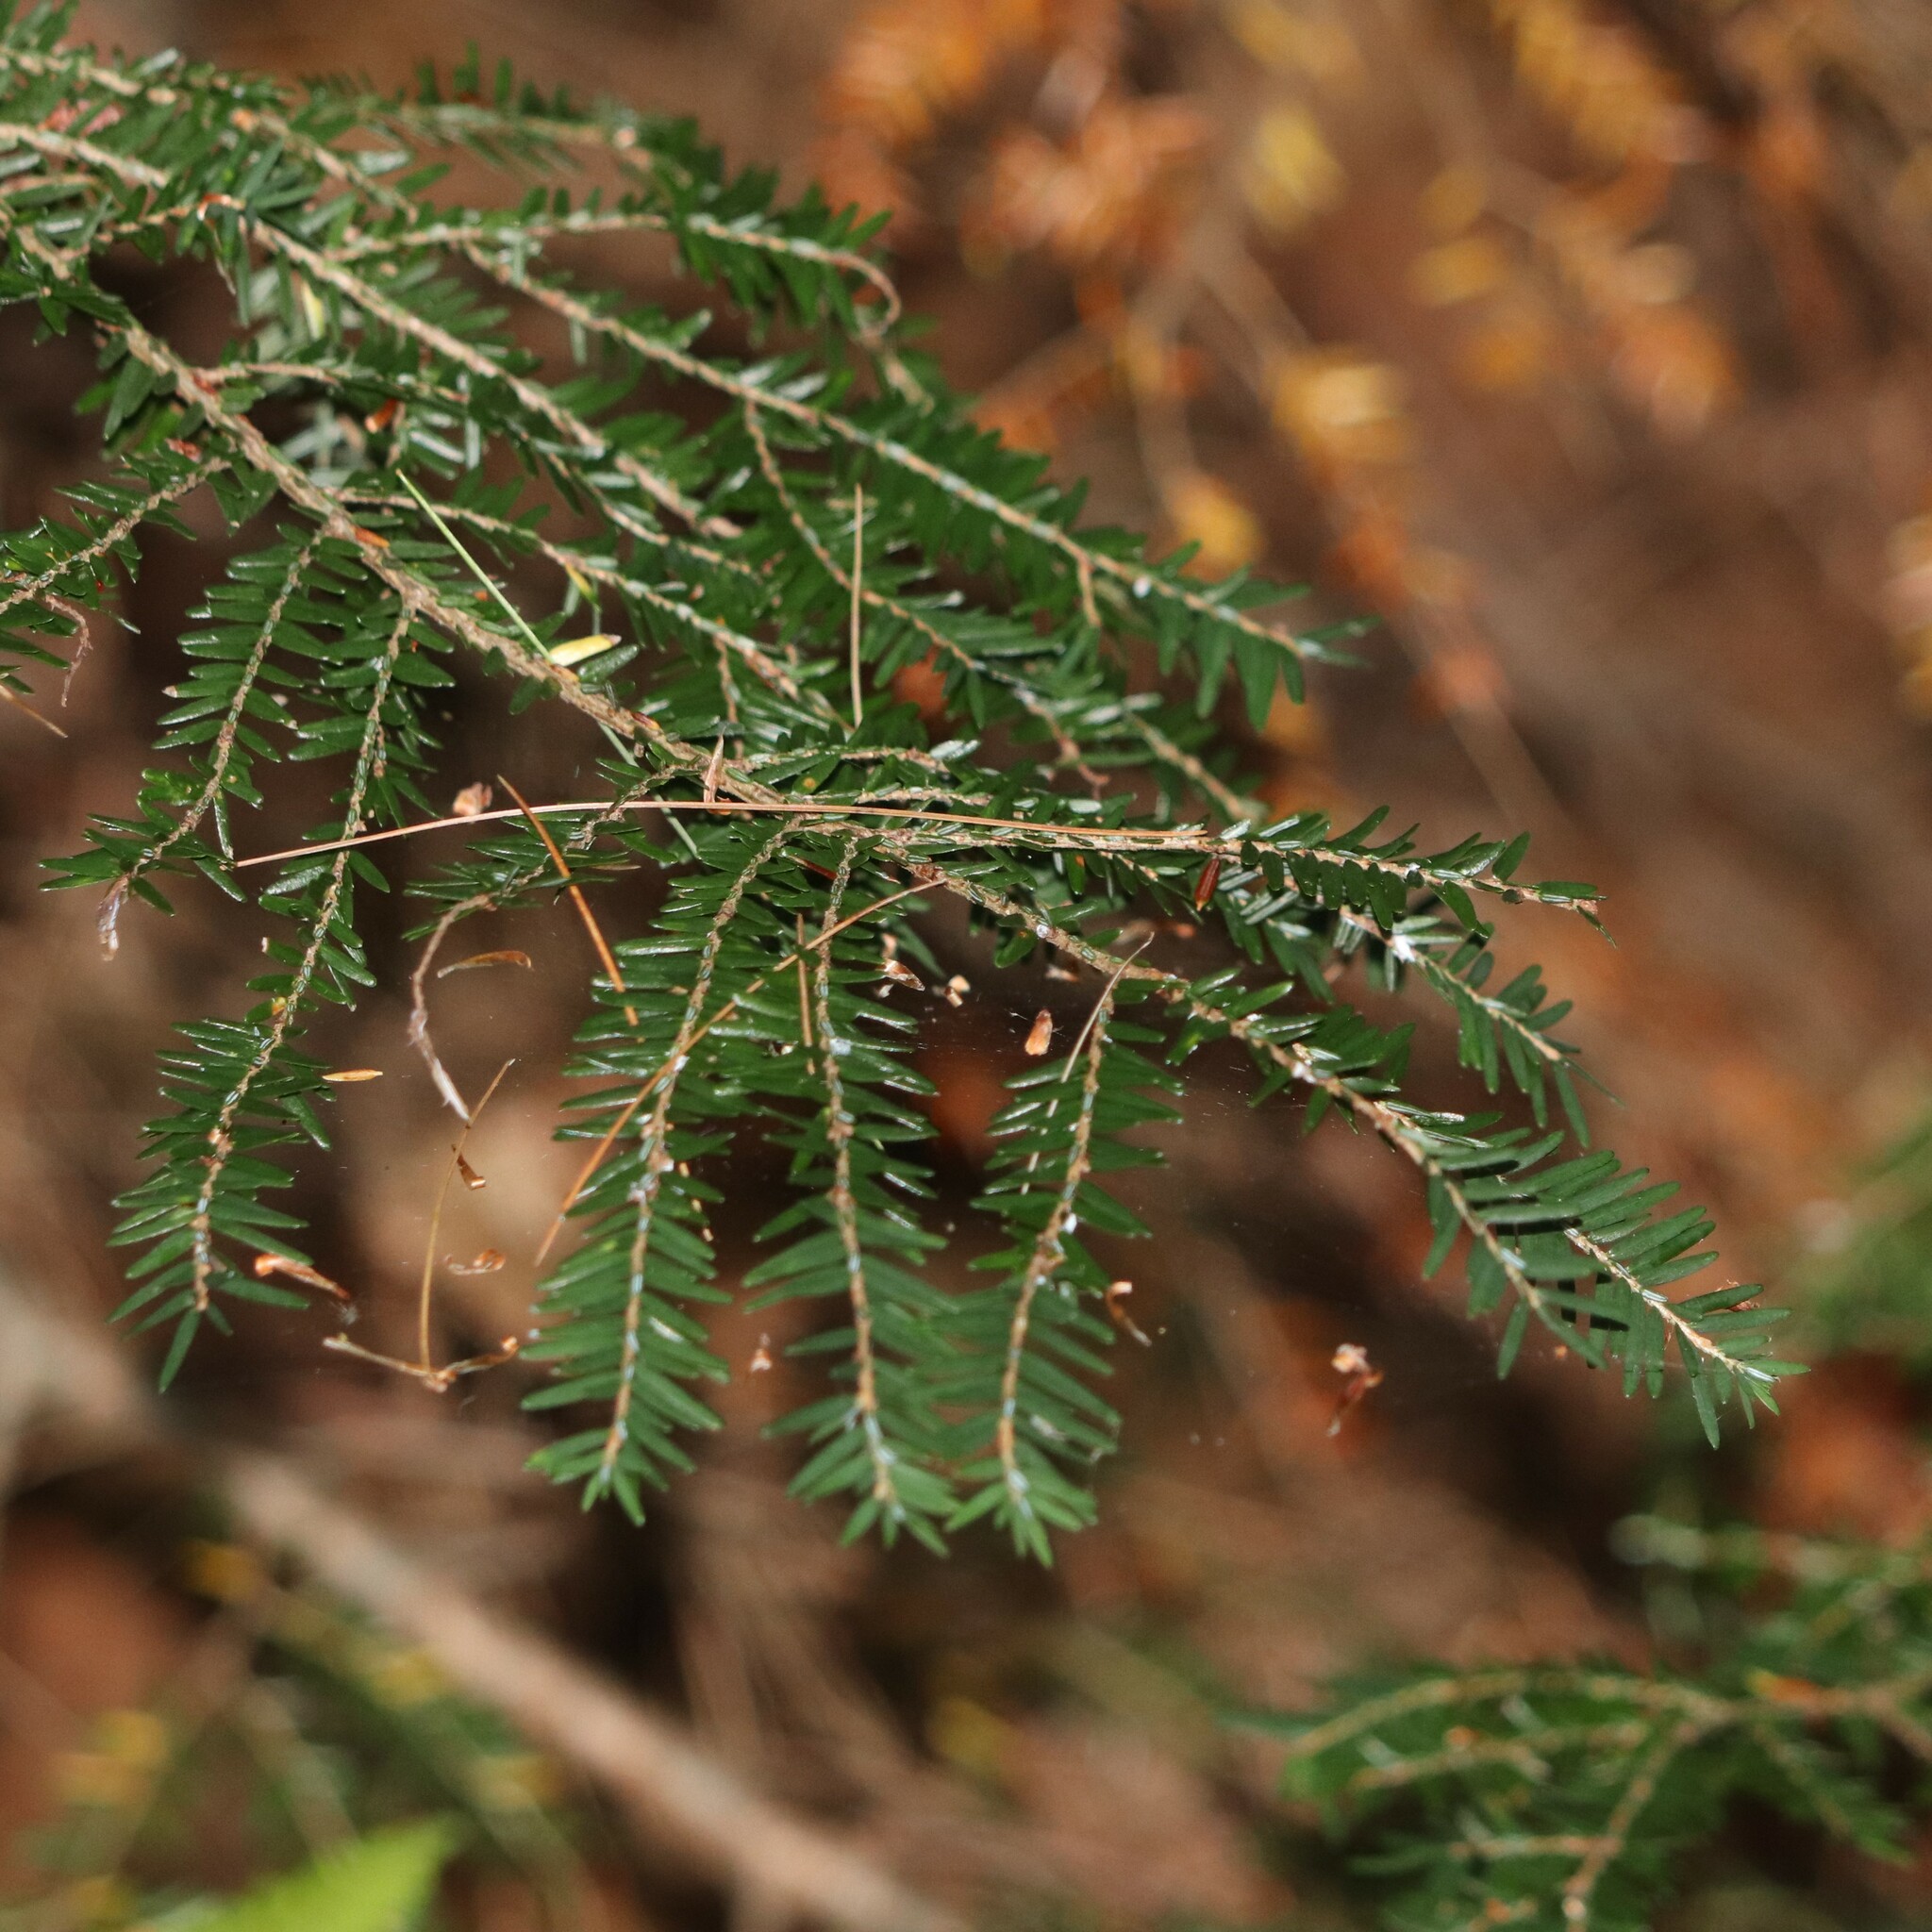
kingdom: Plantae
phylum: Tracheophyta
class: Pinopsida
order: Pinales
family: Pinaceae
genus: Tsuga
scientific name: Tsuga canadensis
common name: Eastern hemlock
